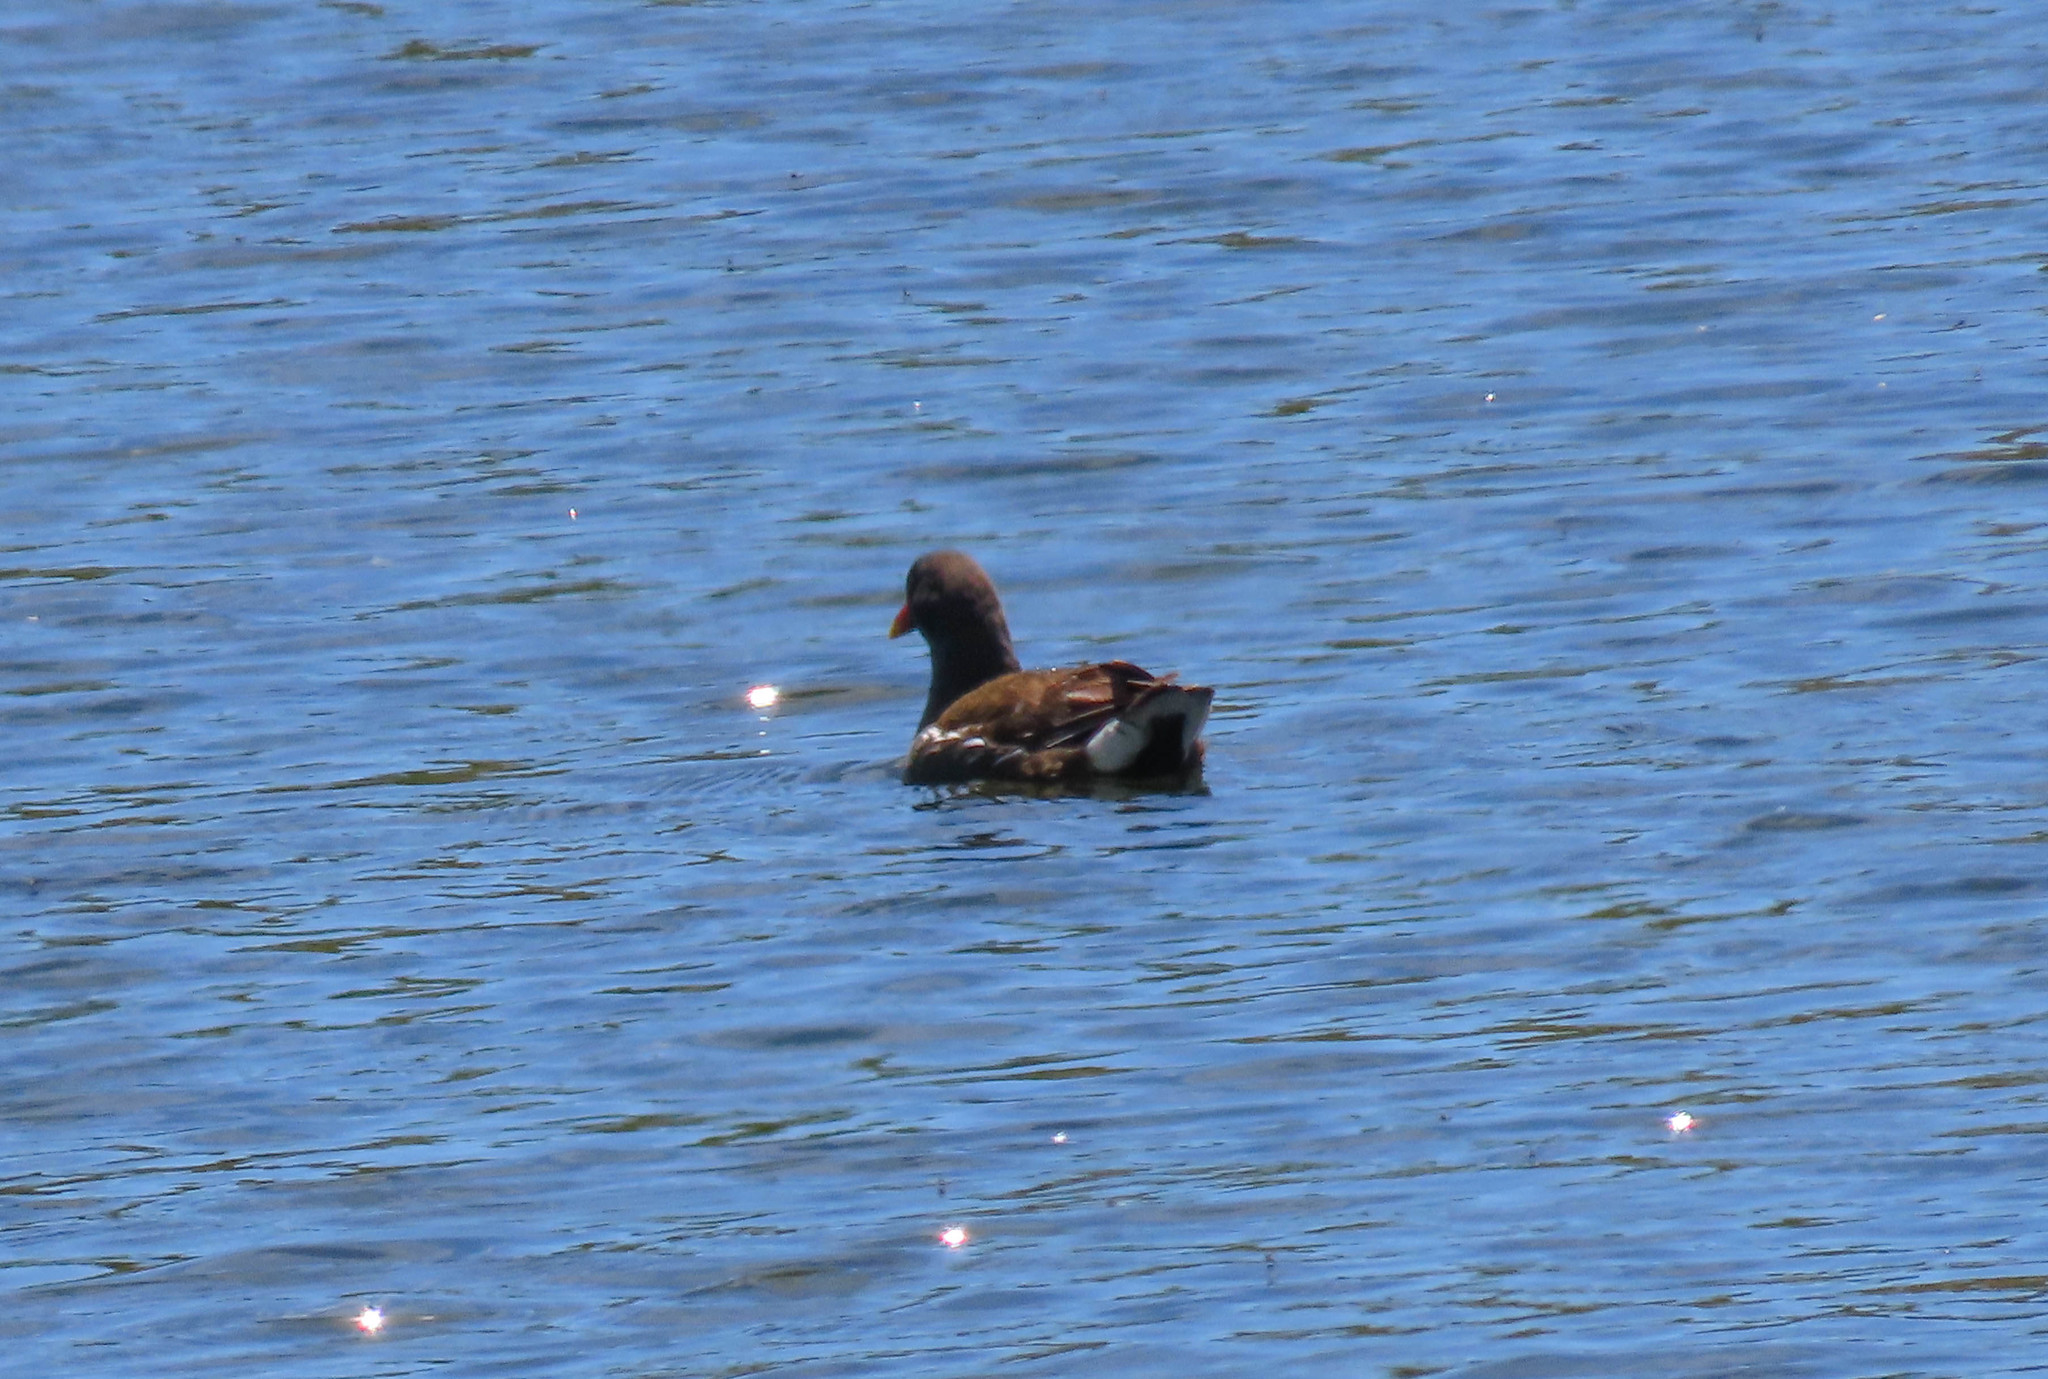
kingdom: Animalia
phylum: Chordata
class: Aves
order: Gruiformes
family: Rallidae
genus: Gallinula
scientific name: Gallinula chloropus
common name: Common moorhen
